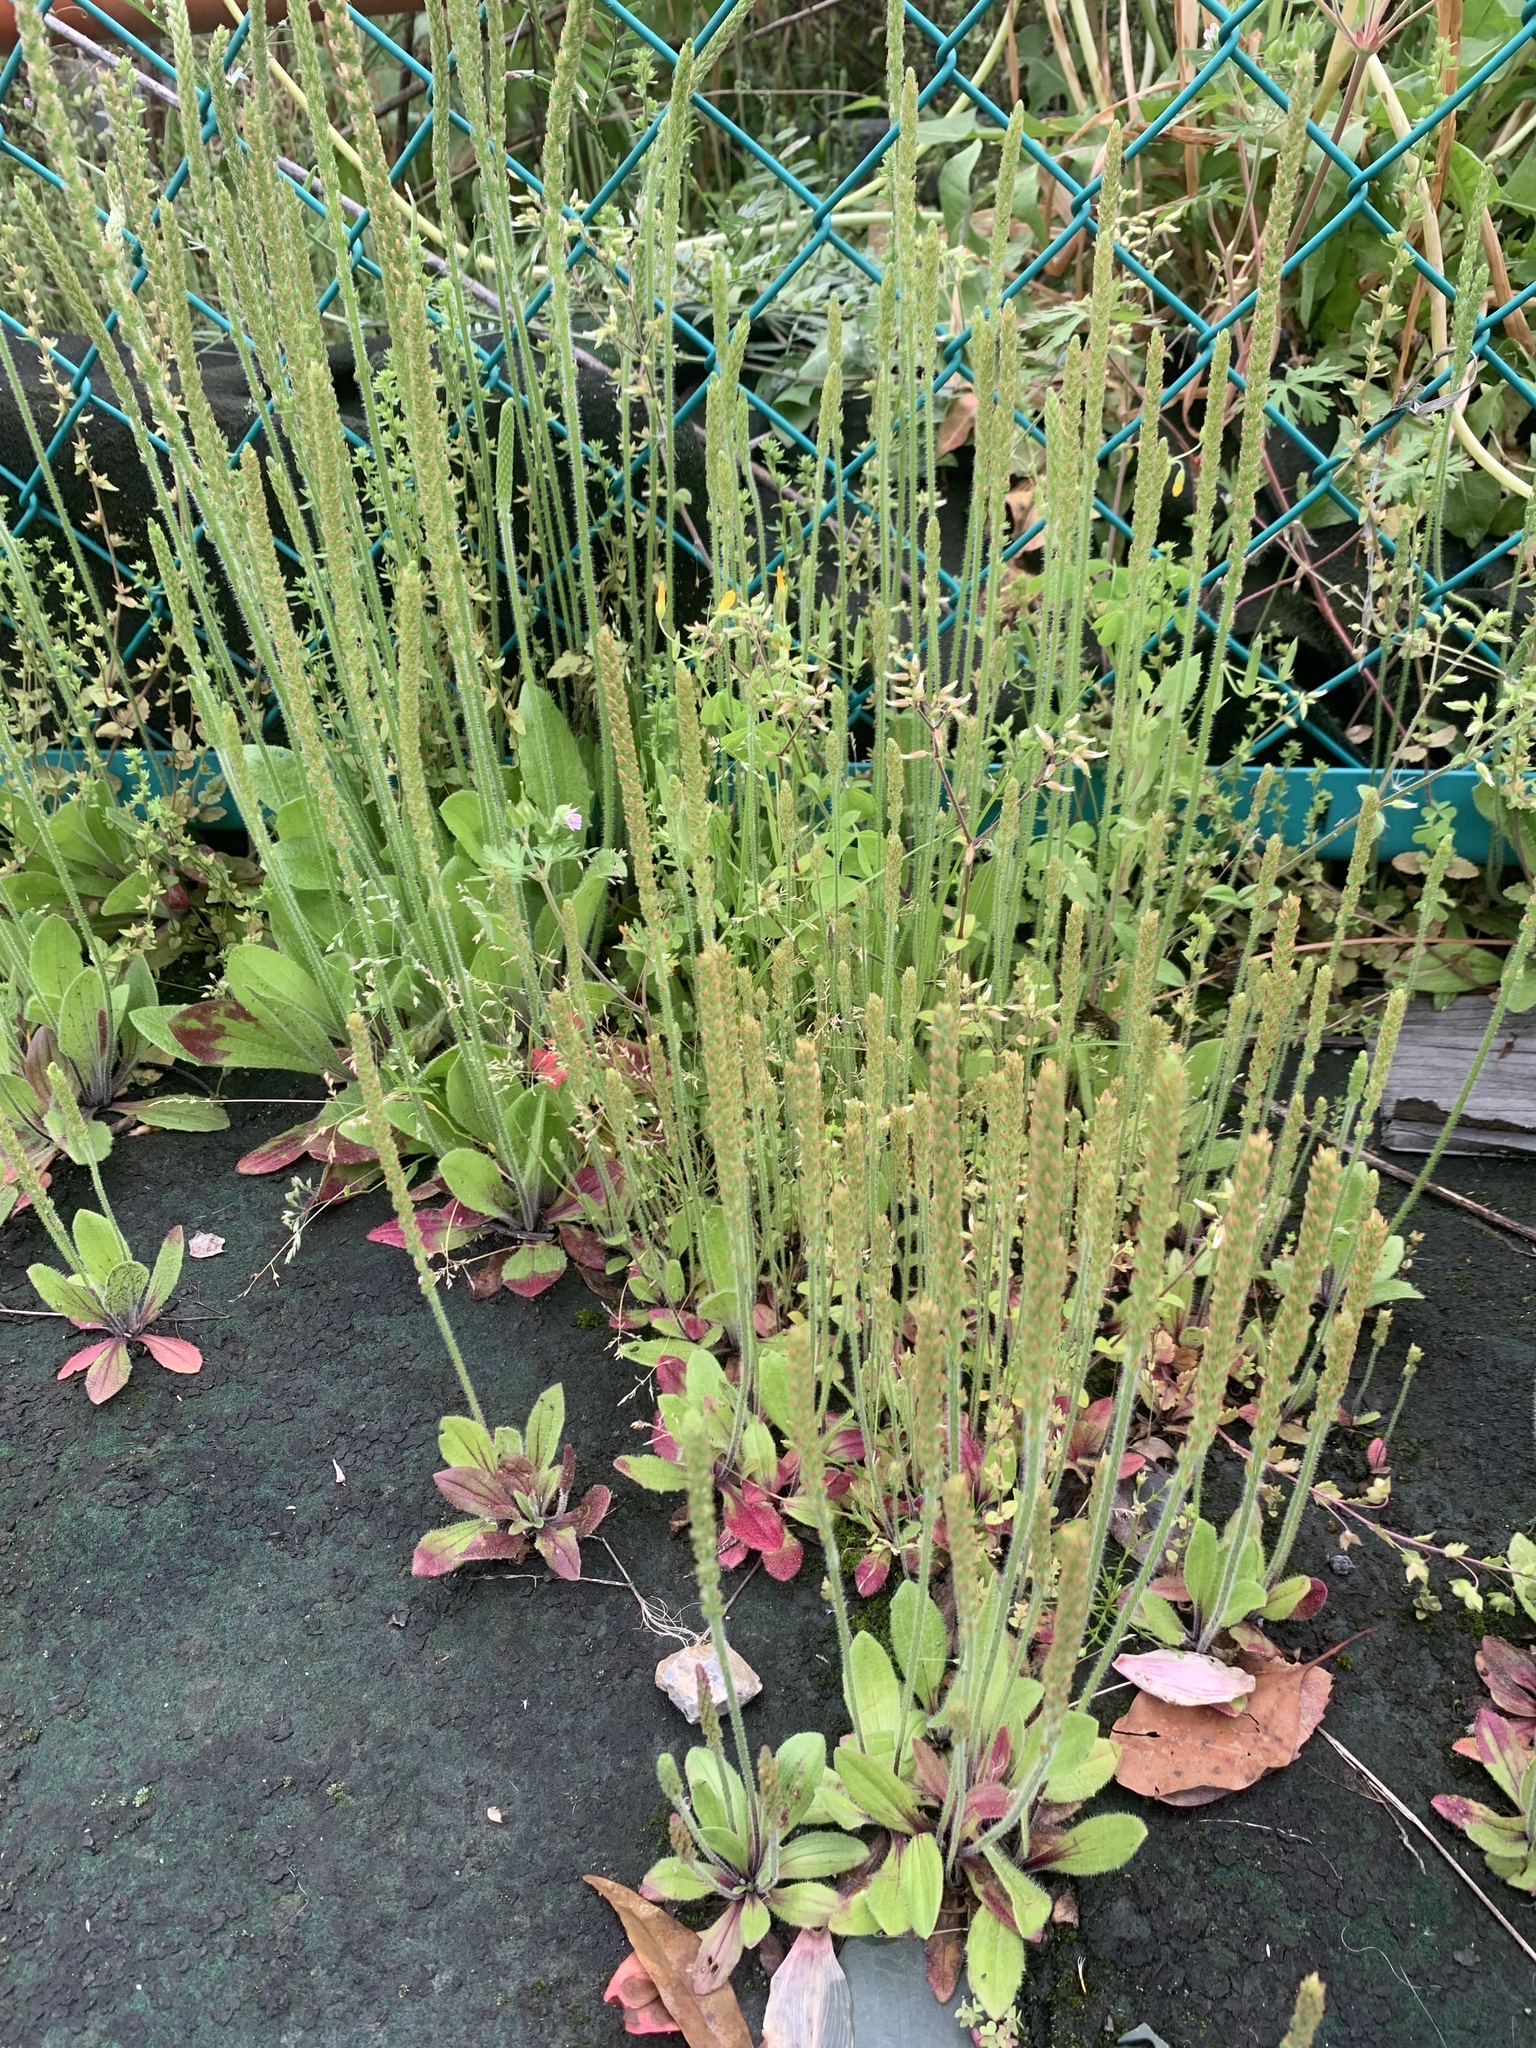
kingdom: Plantae
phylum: Tracheophyta
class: Magnoliopsida
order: Lamiales
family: Plantaginaceae
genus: Plantago
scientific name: Plantago virginica
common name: Hoary plantain
